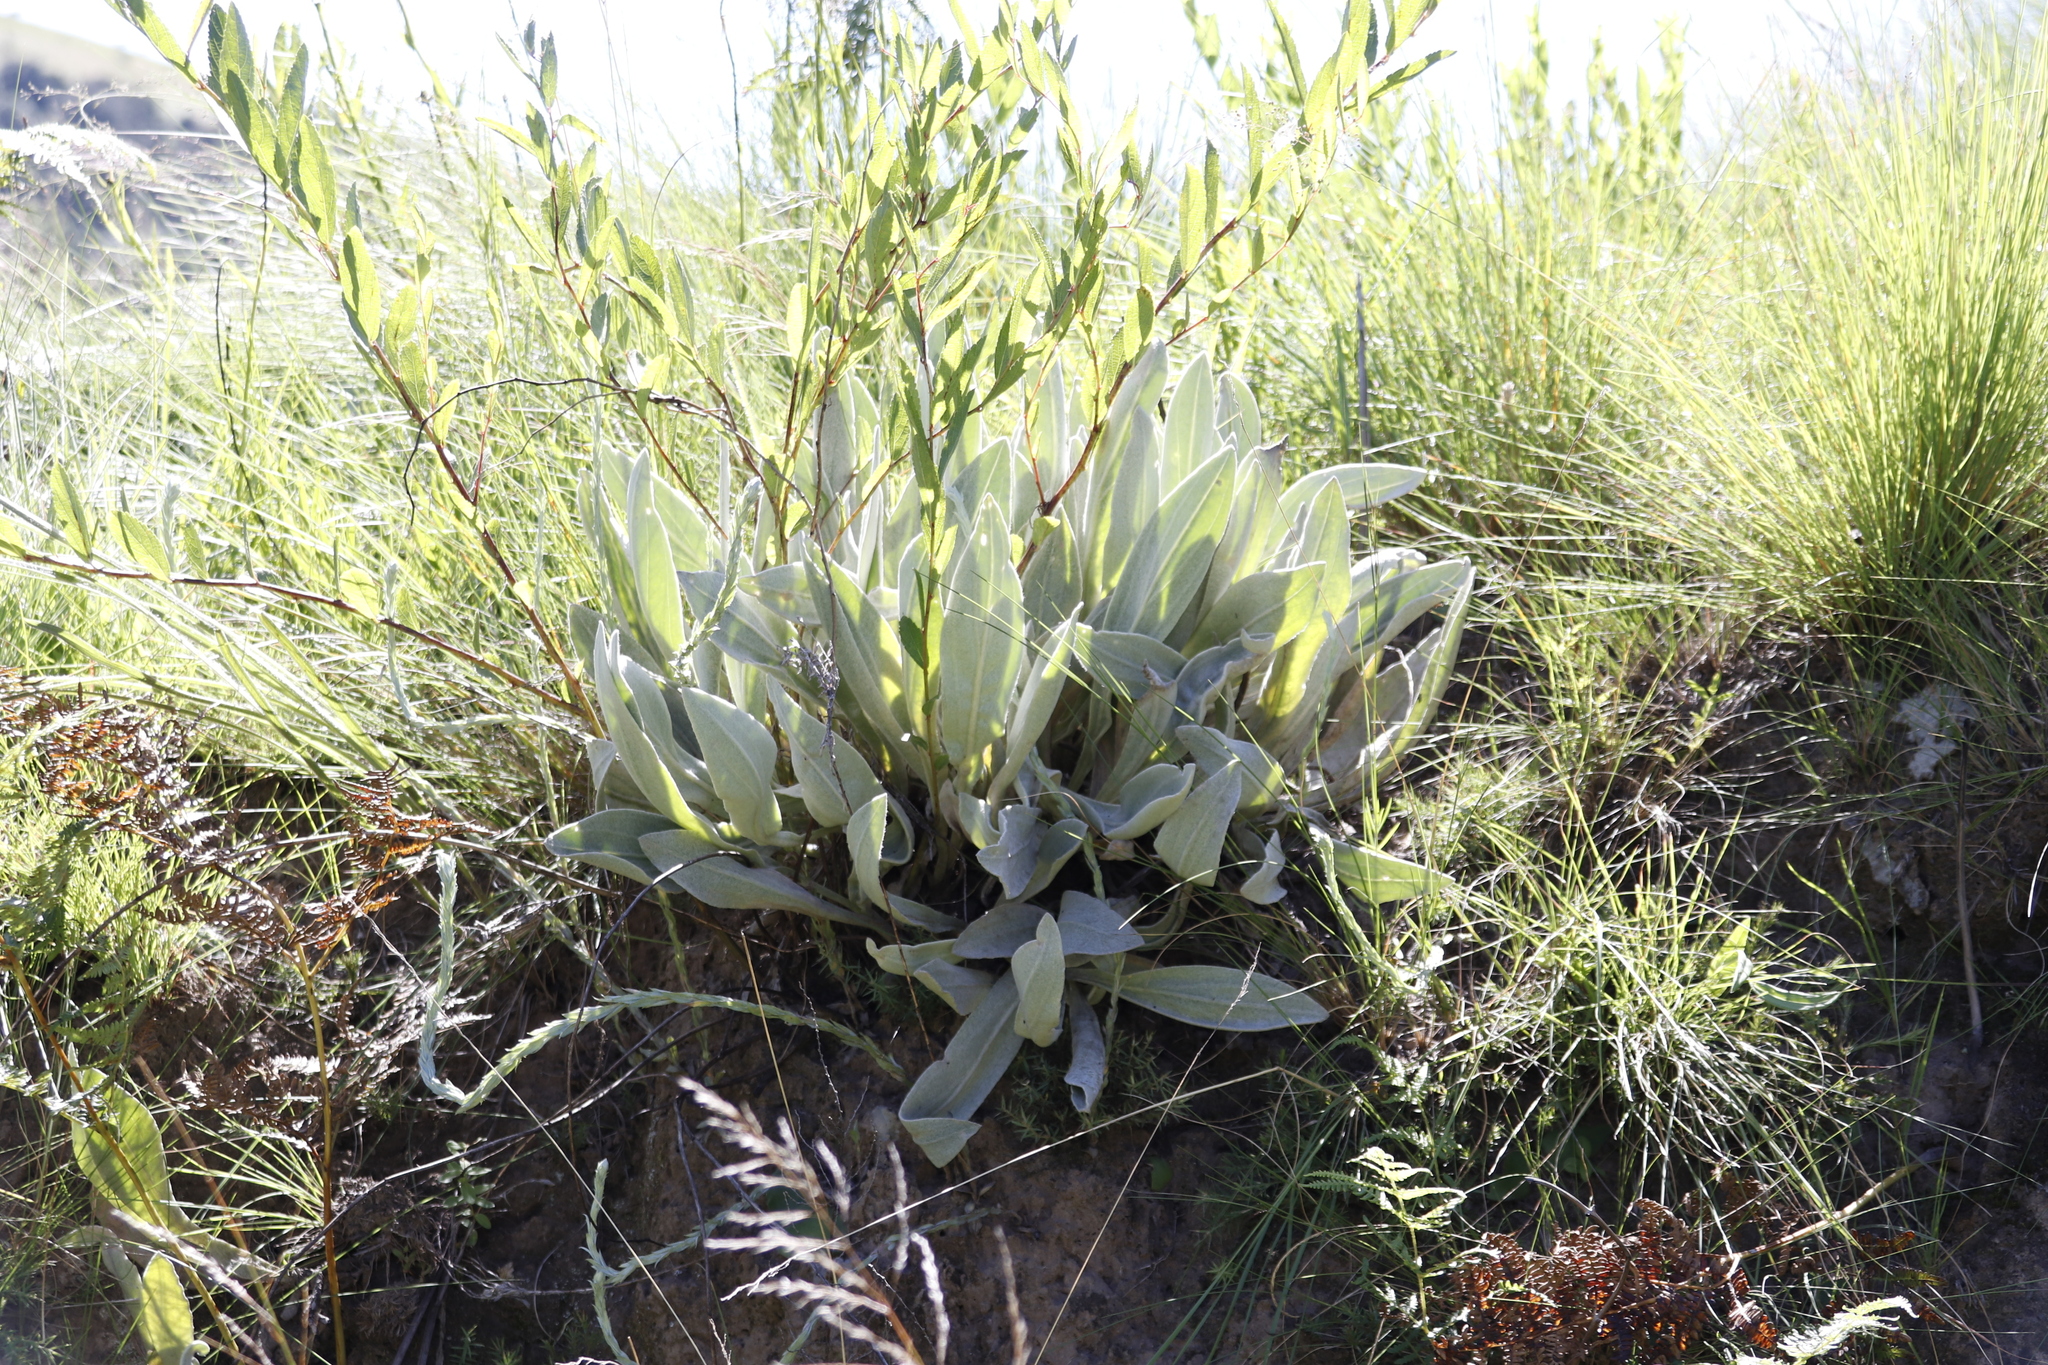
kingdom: Plantae
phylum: Tracheophyta
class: Magnoliopsida
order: Asterales
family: Asteraceae
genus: Helichrysum
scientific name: Helichrysum acutatum
